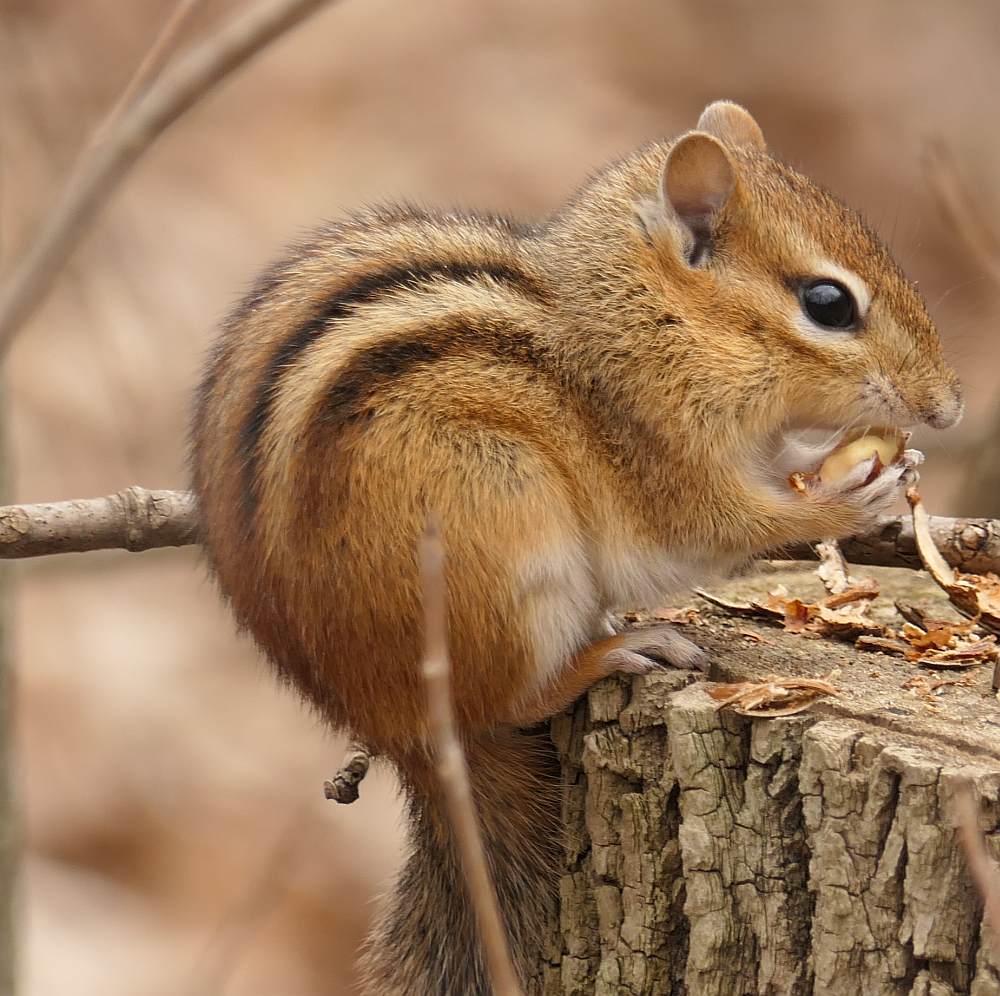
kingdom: Animalia
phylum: Chordata
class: Mammalia
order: Rodentia
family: Sciuridae
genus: Tamias
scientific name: Tamias striatus
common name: Eastern chipmunk
